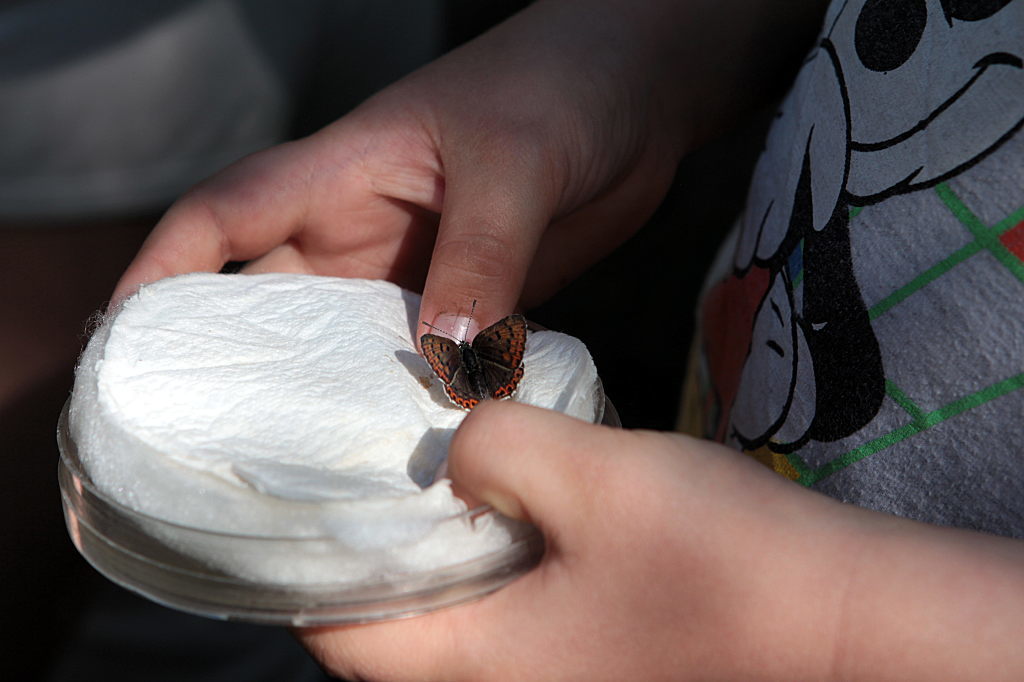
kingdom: Animalia
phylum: Arthropoda
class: Insecta
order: Lepidoptera
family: Lycaenidae
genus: Loweia
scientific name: Loweia tityrus
